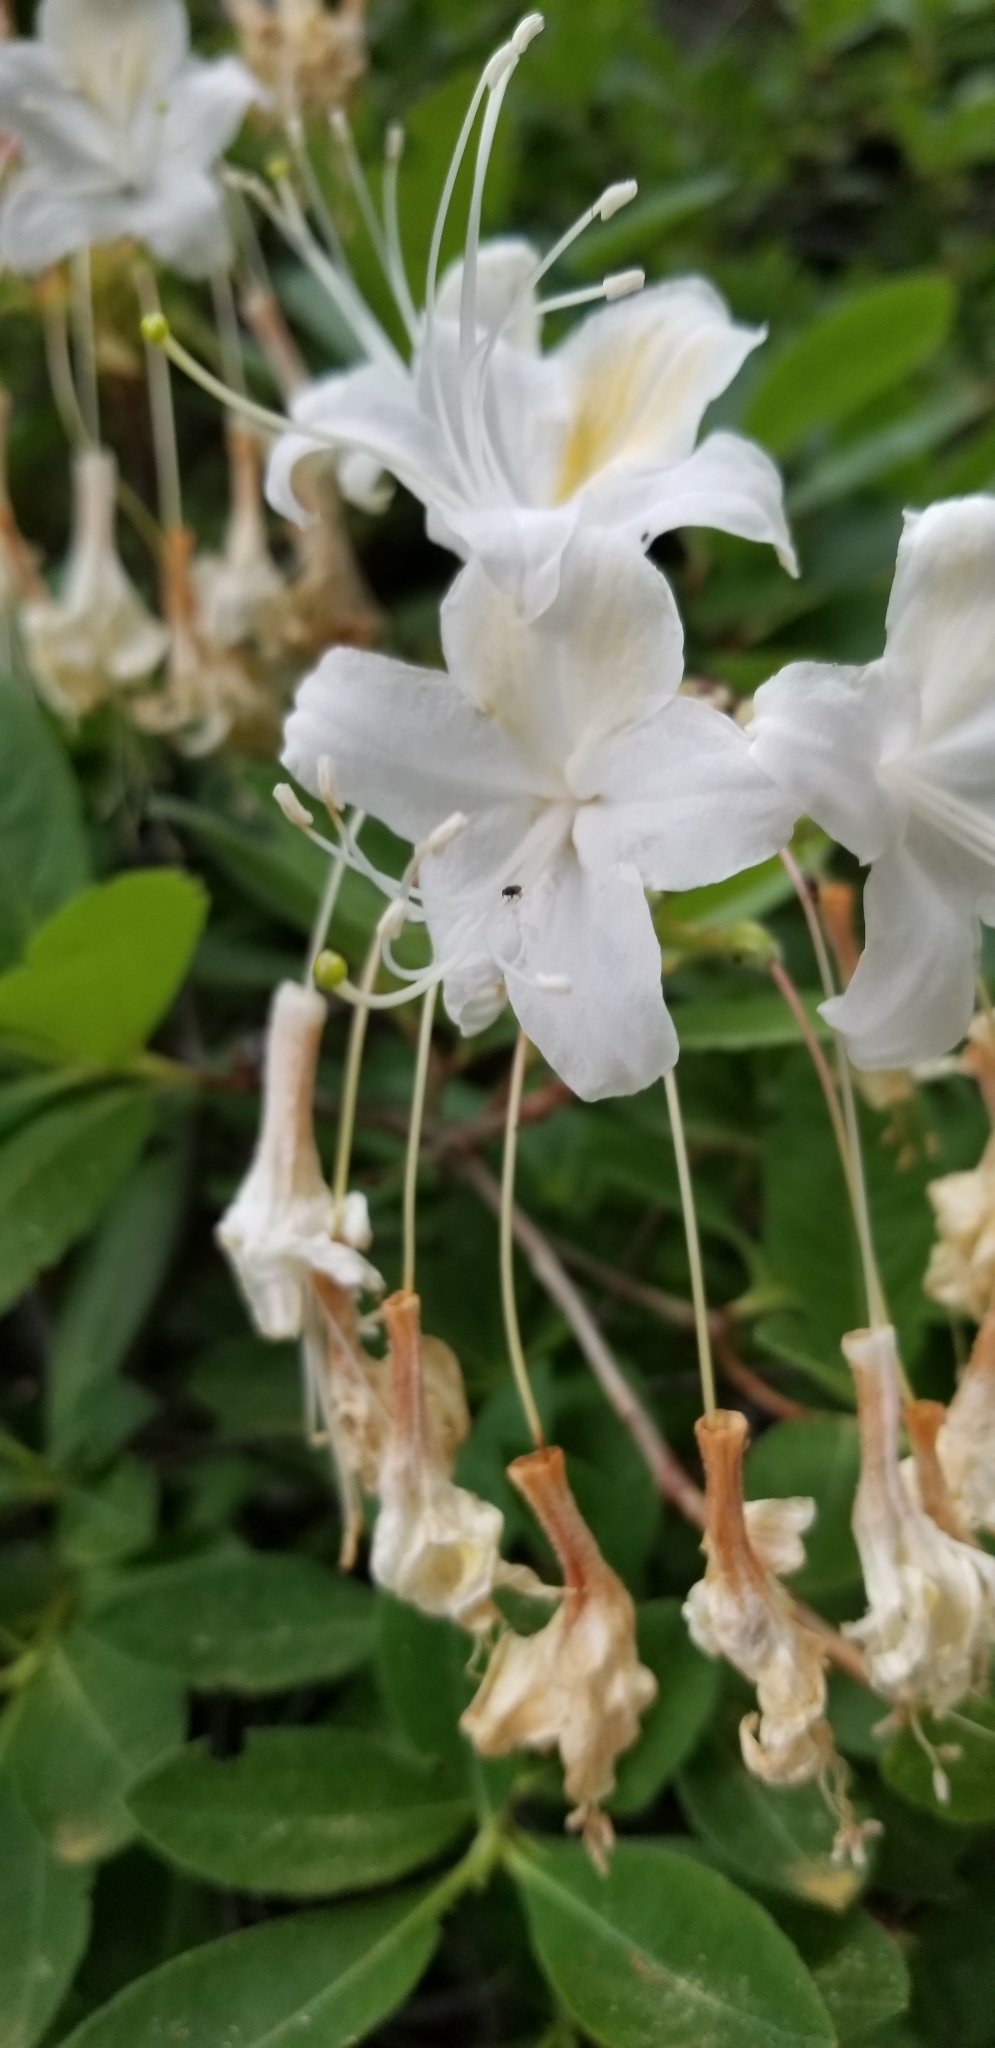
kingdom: Plantae
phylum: Tracheophyta
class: Magnoliopsida
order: Ericales
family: Ericaceae
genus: Rhododendron
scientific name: Rhododendron occidentale
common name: Western azalea
